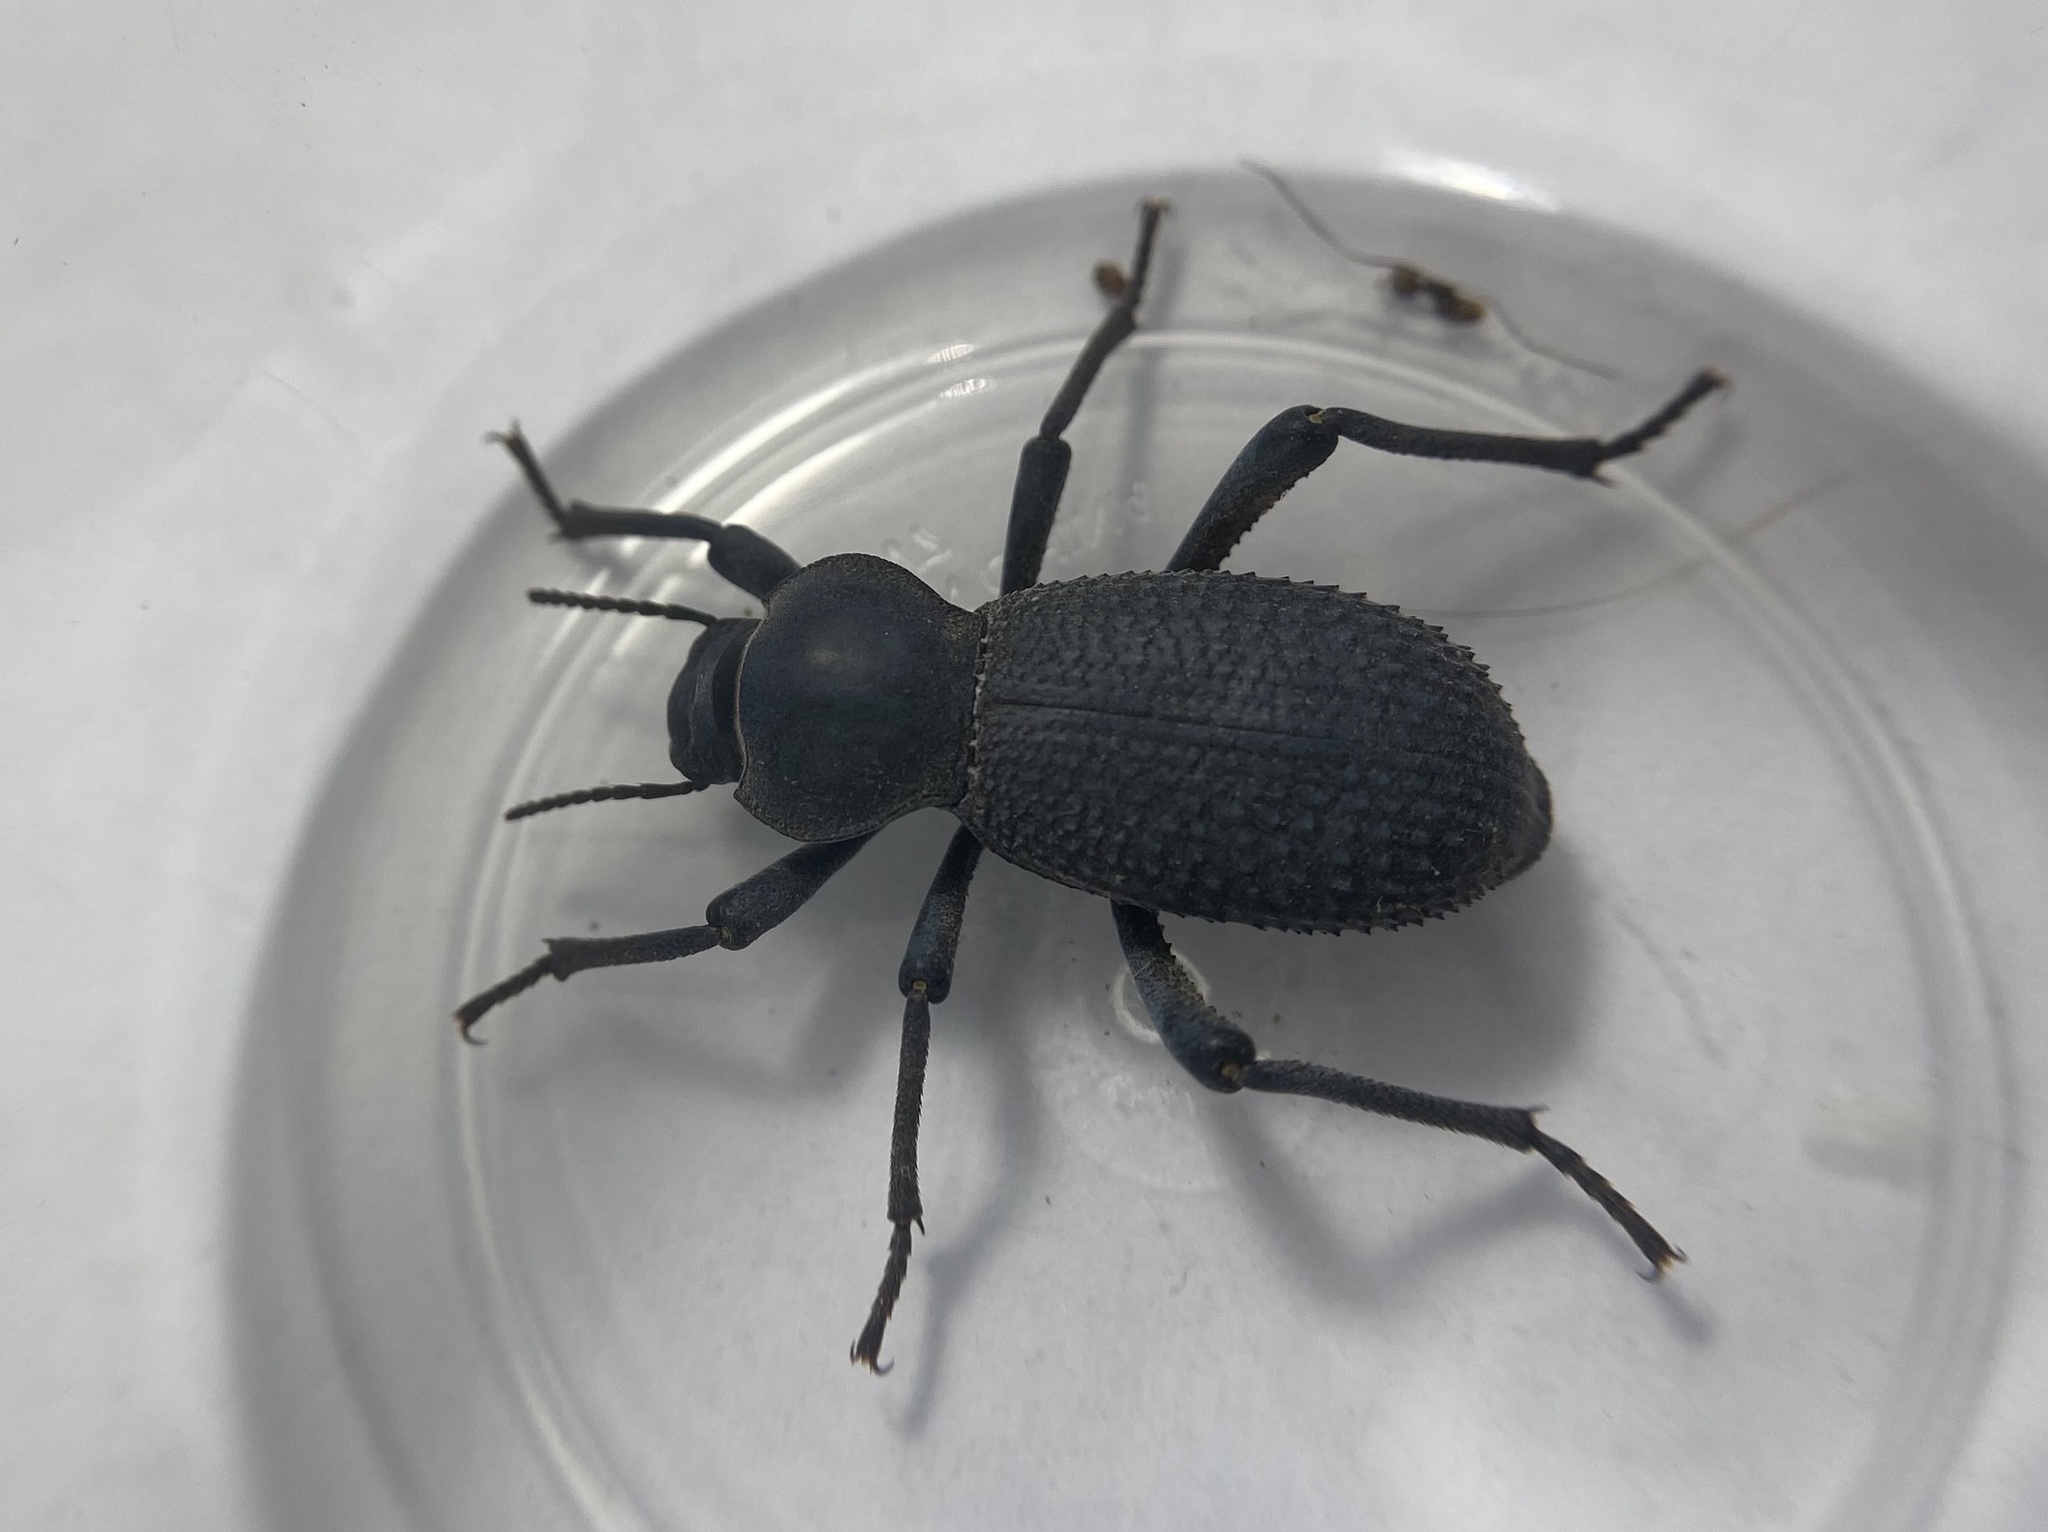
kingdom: Animalia
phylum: Arthropoda
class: Insecta
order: Coleoptera
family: Tenebrionidae
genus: Cryptoglossa
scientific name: Cryptoglossa muricata
